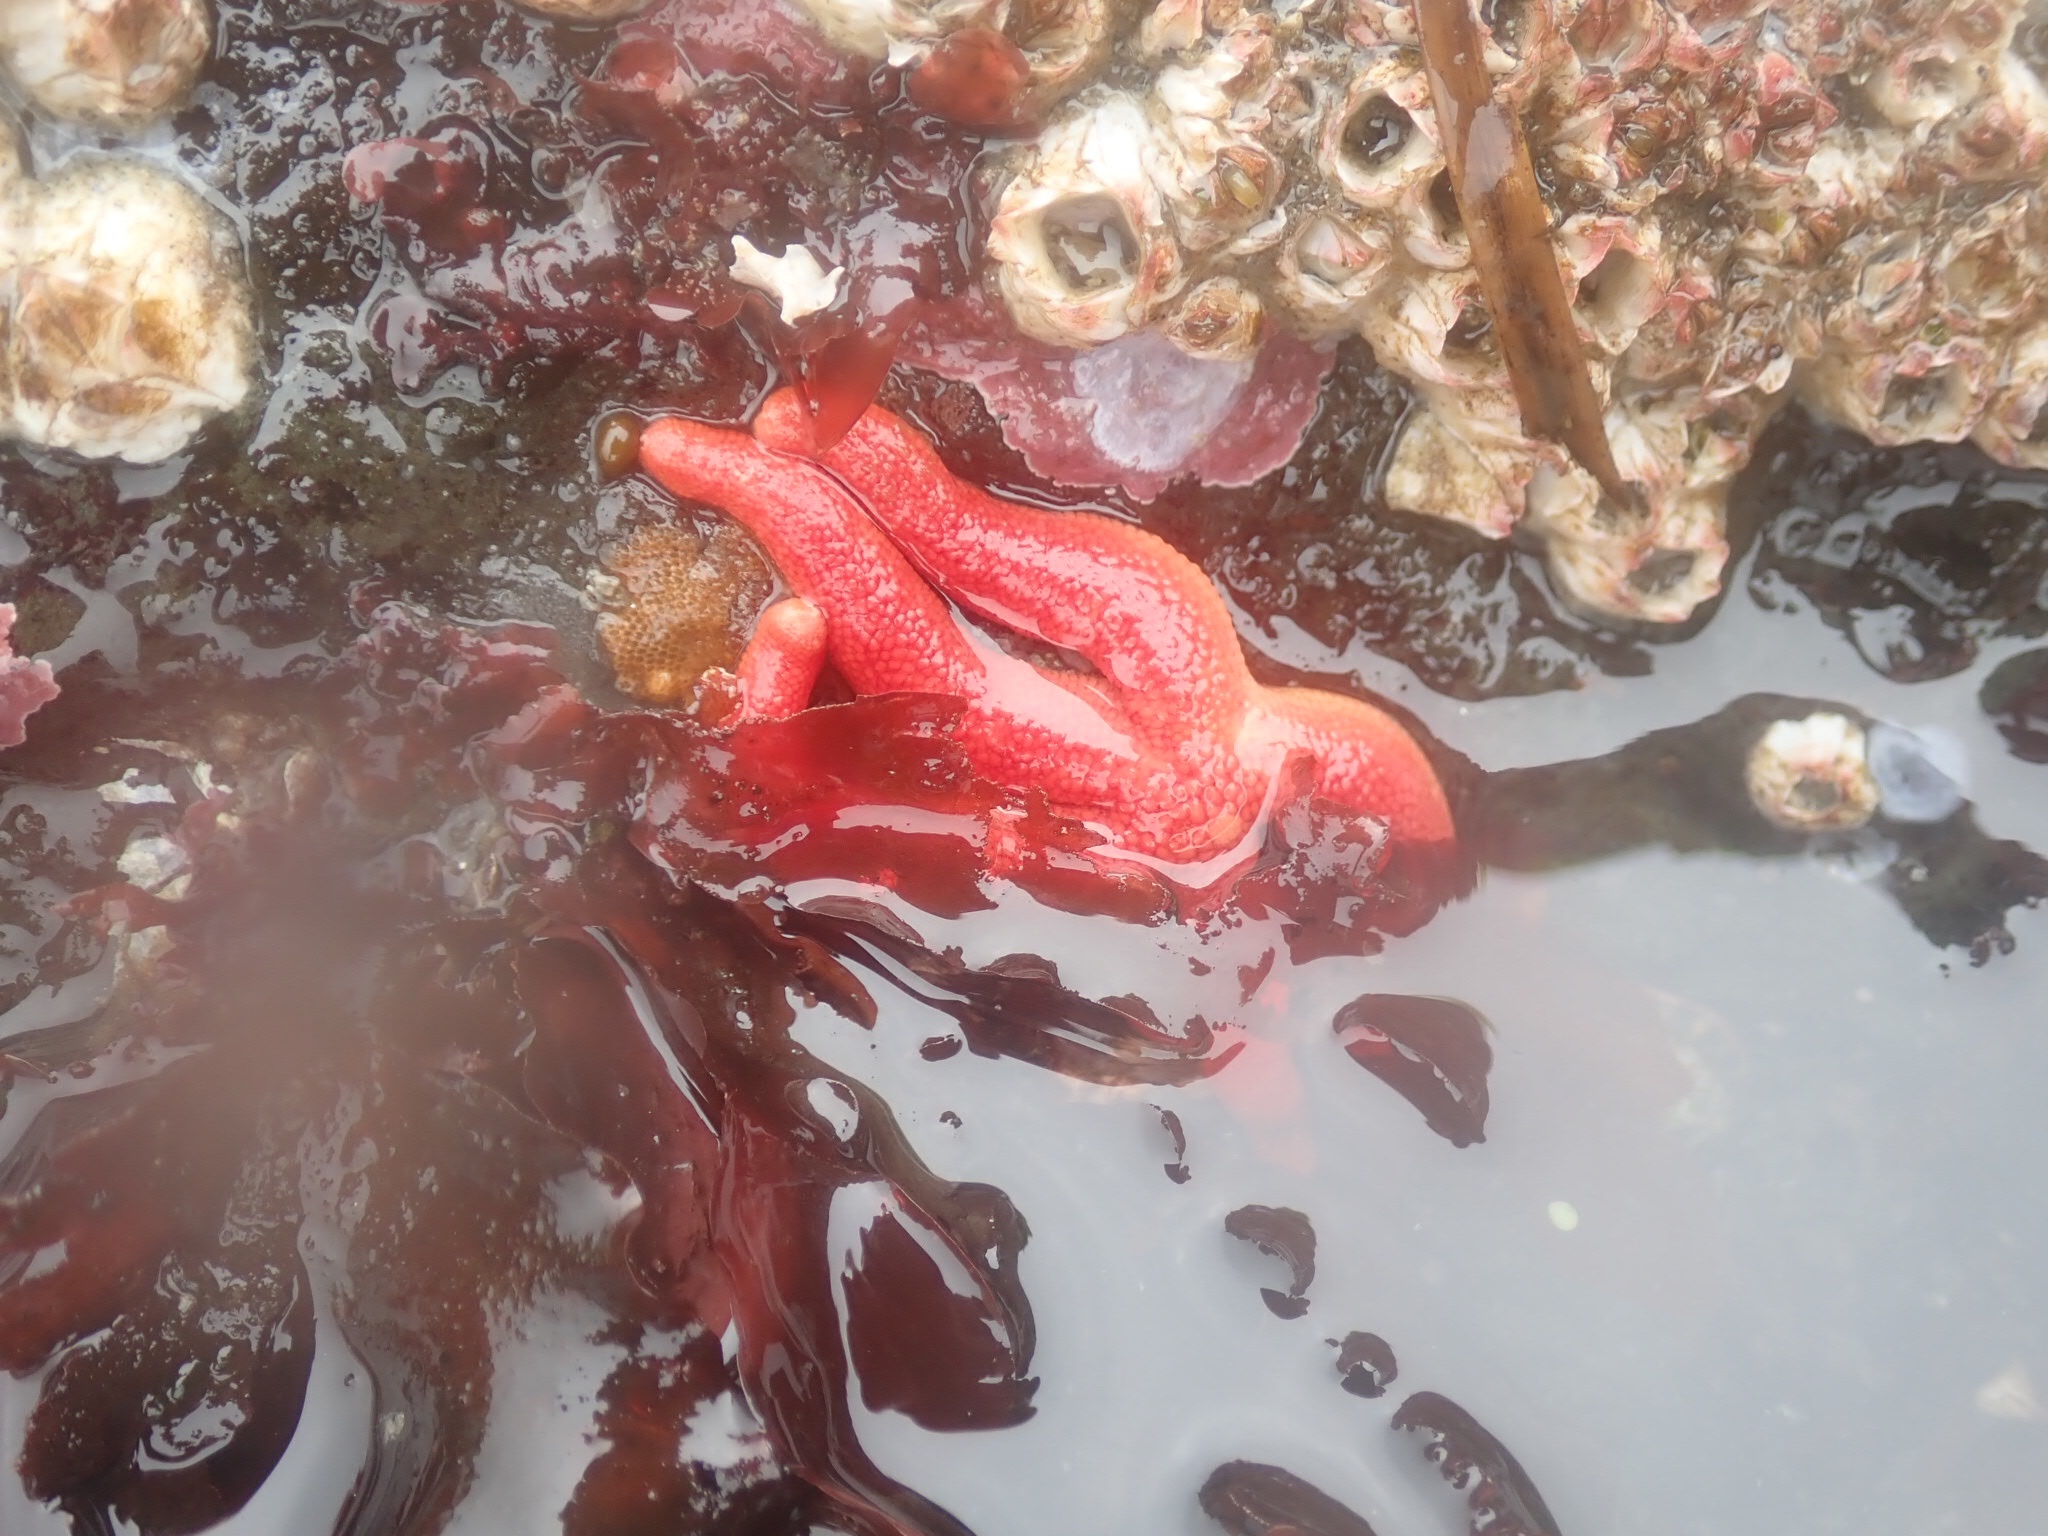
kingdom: Animalia
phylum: Echinodermata
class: Asteroidea
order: Spinulosida
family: Echinasteridae
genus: Henricia
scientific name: Henricia
